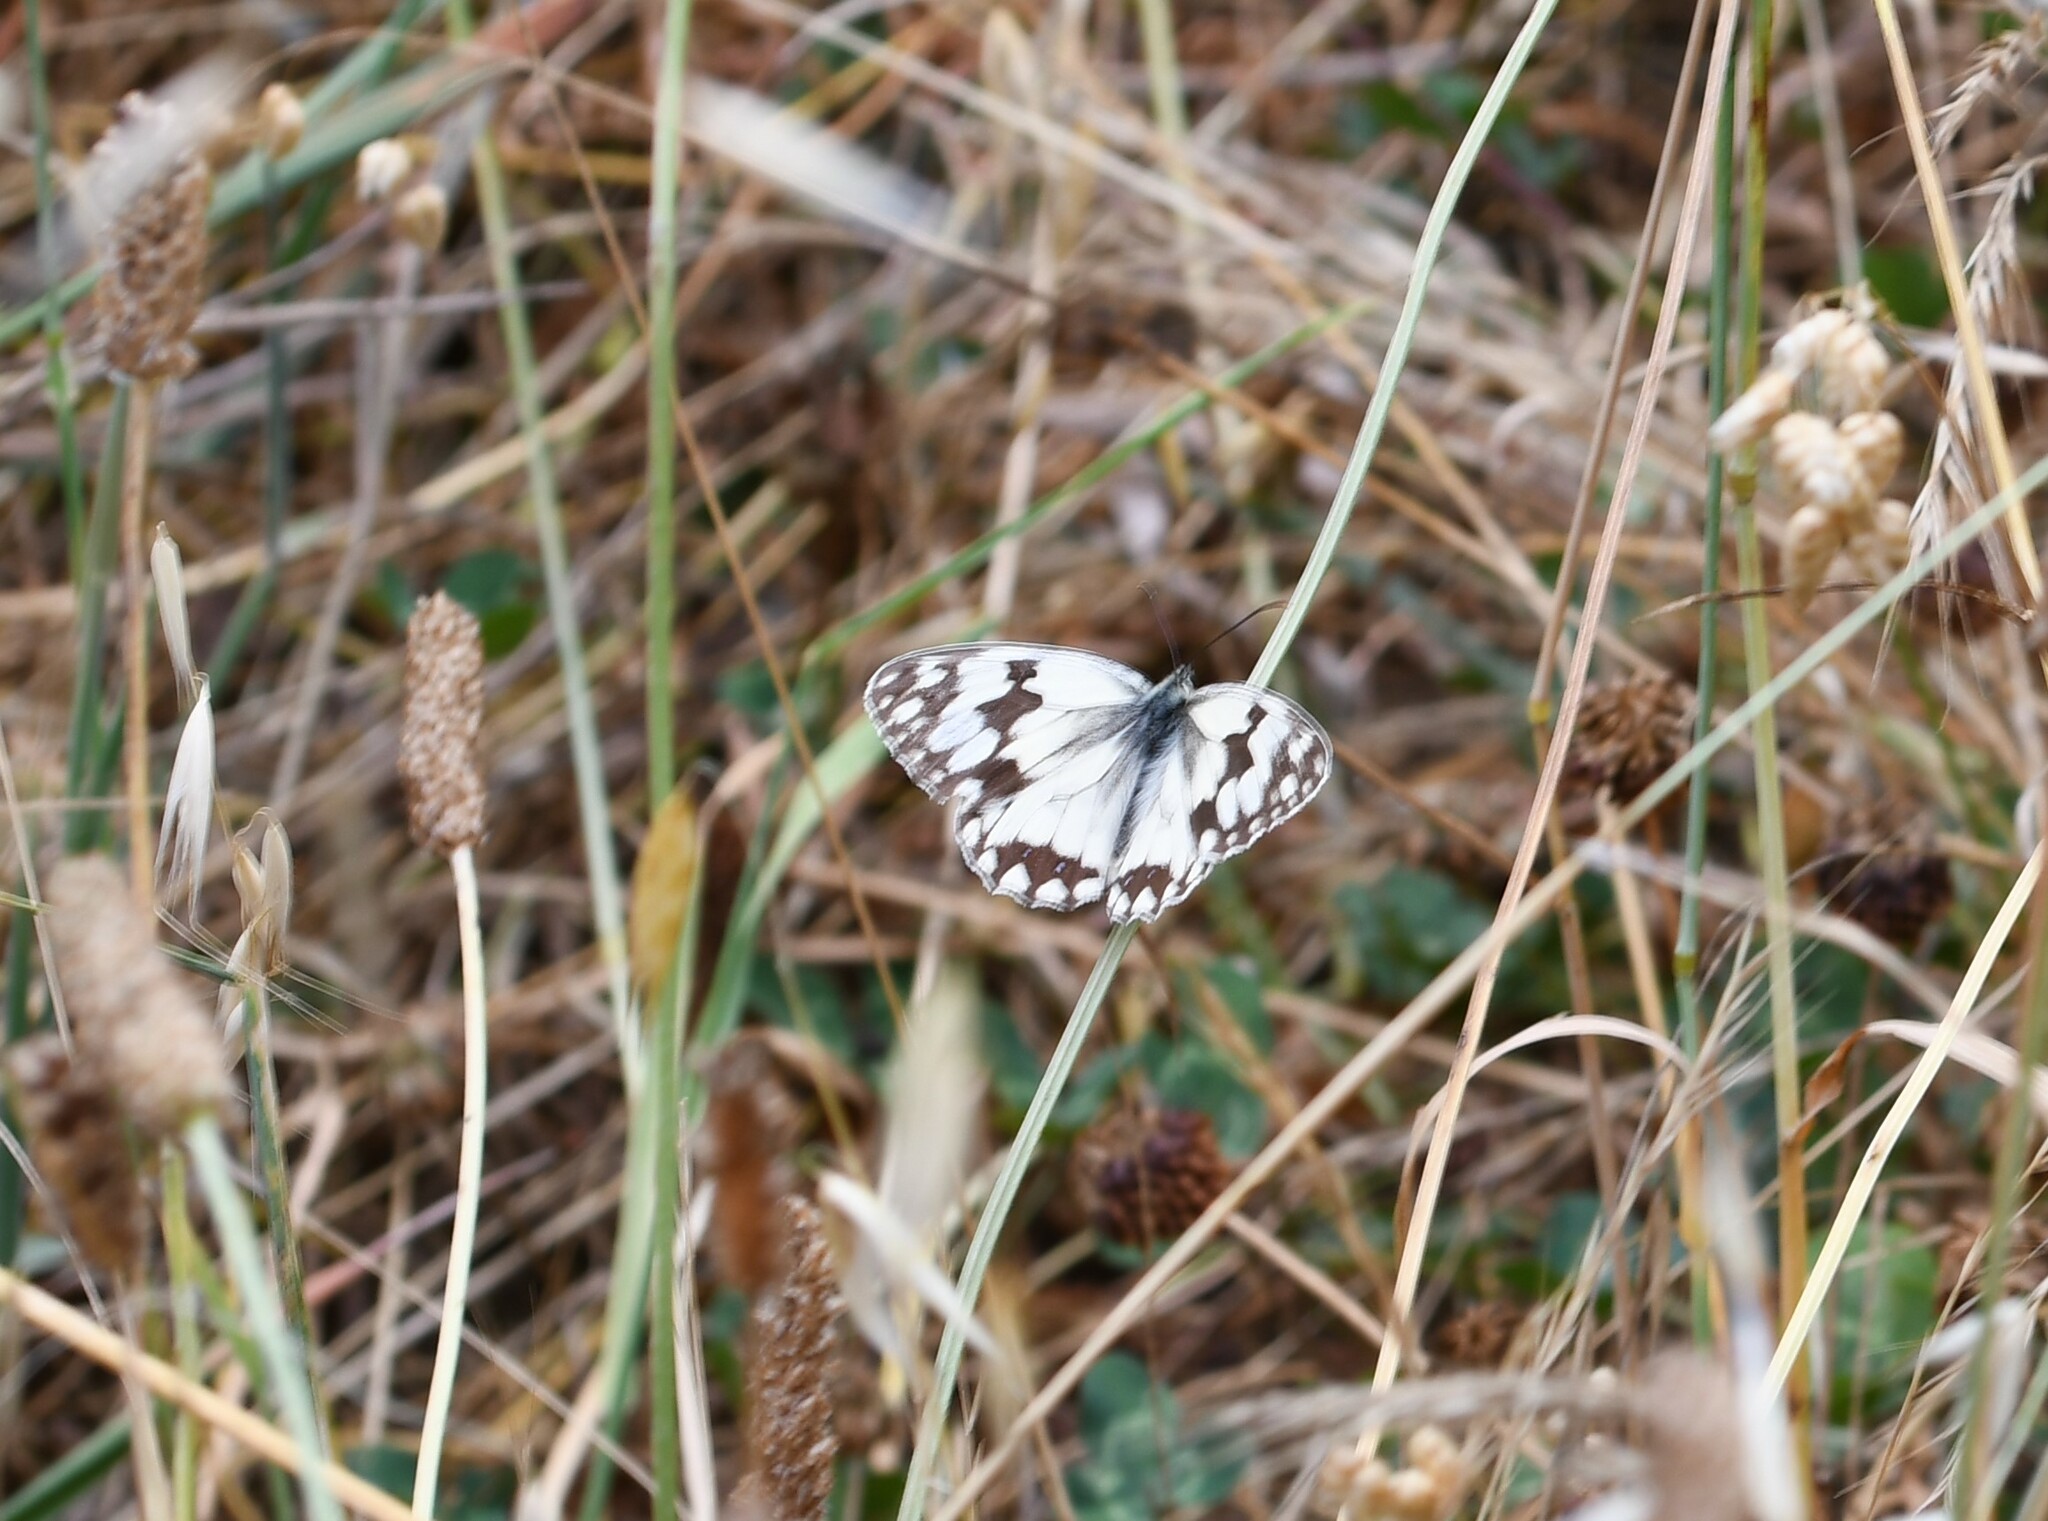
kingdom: Animalia
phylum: Arthropoda
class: Insecta
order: Lepidoptera
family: Nymphalidae
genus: Melanargia
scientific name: Melanargia lachesis
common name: Iberian marbled white
